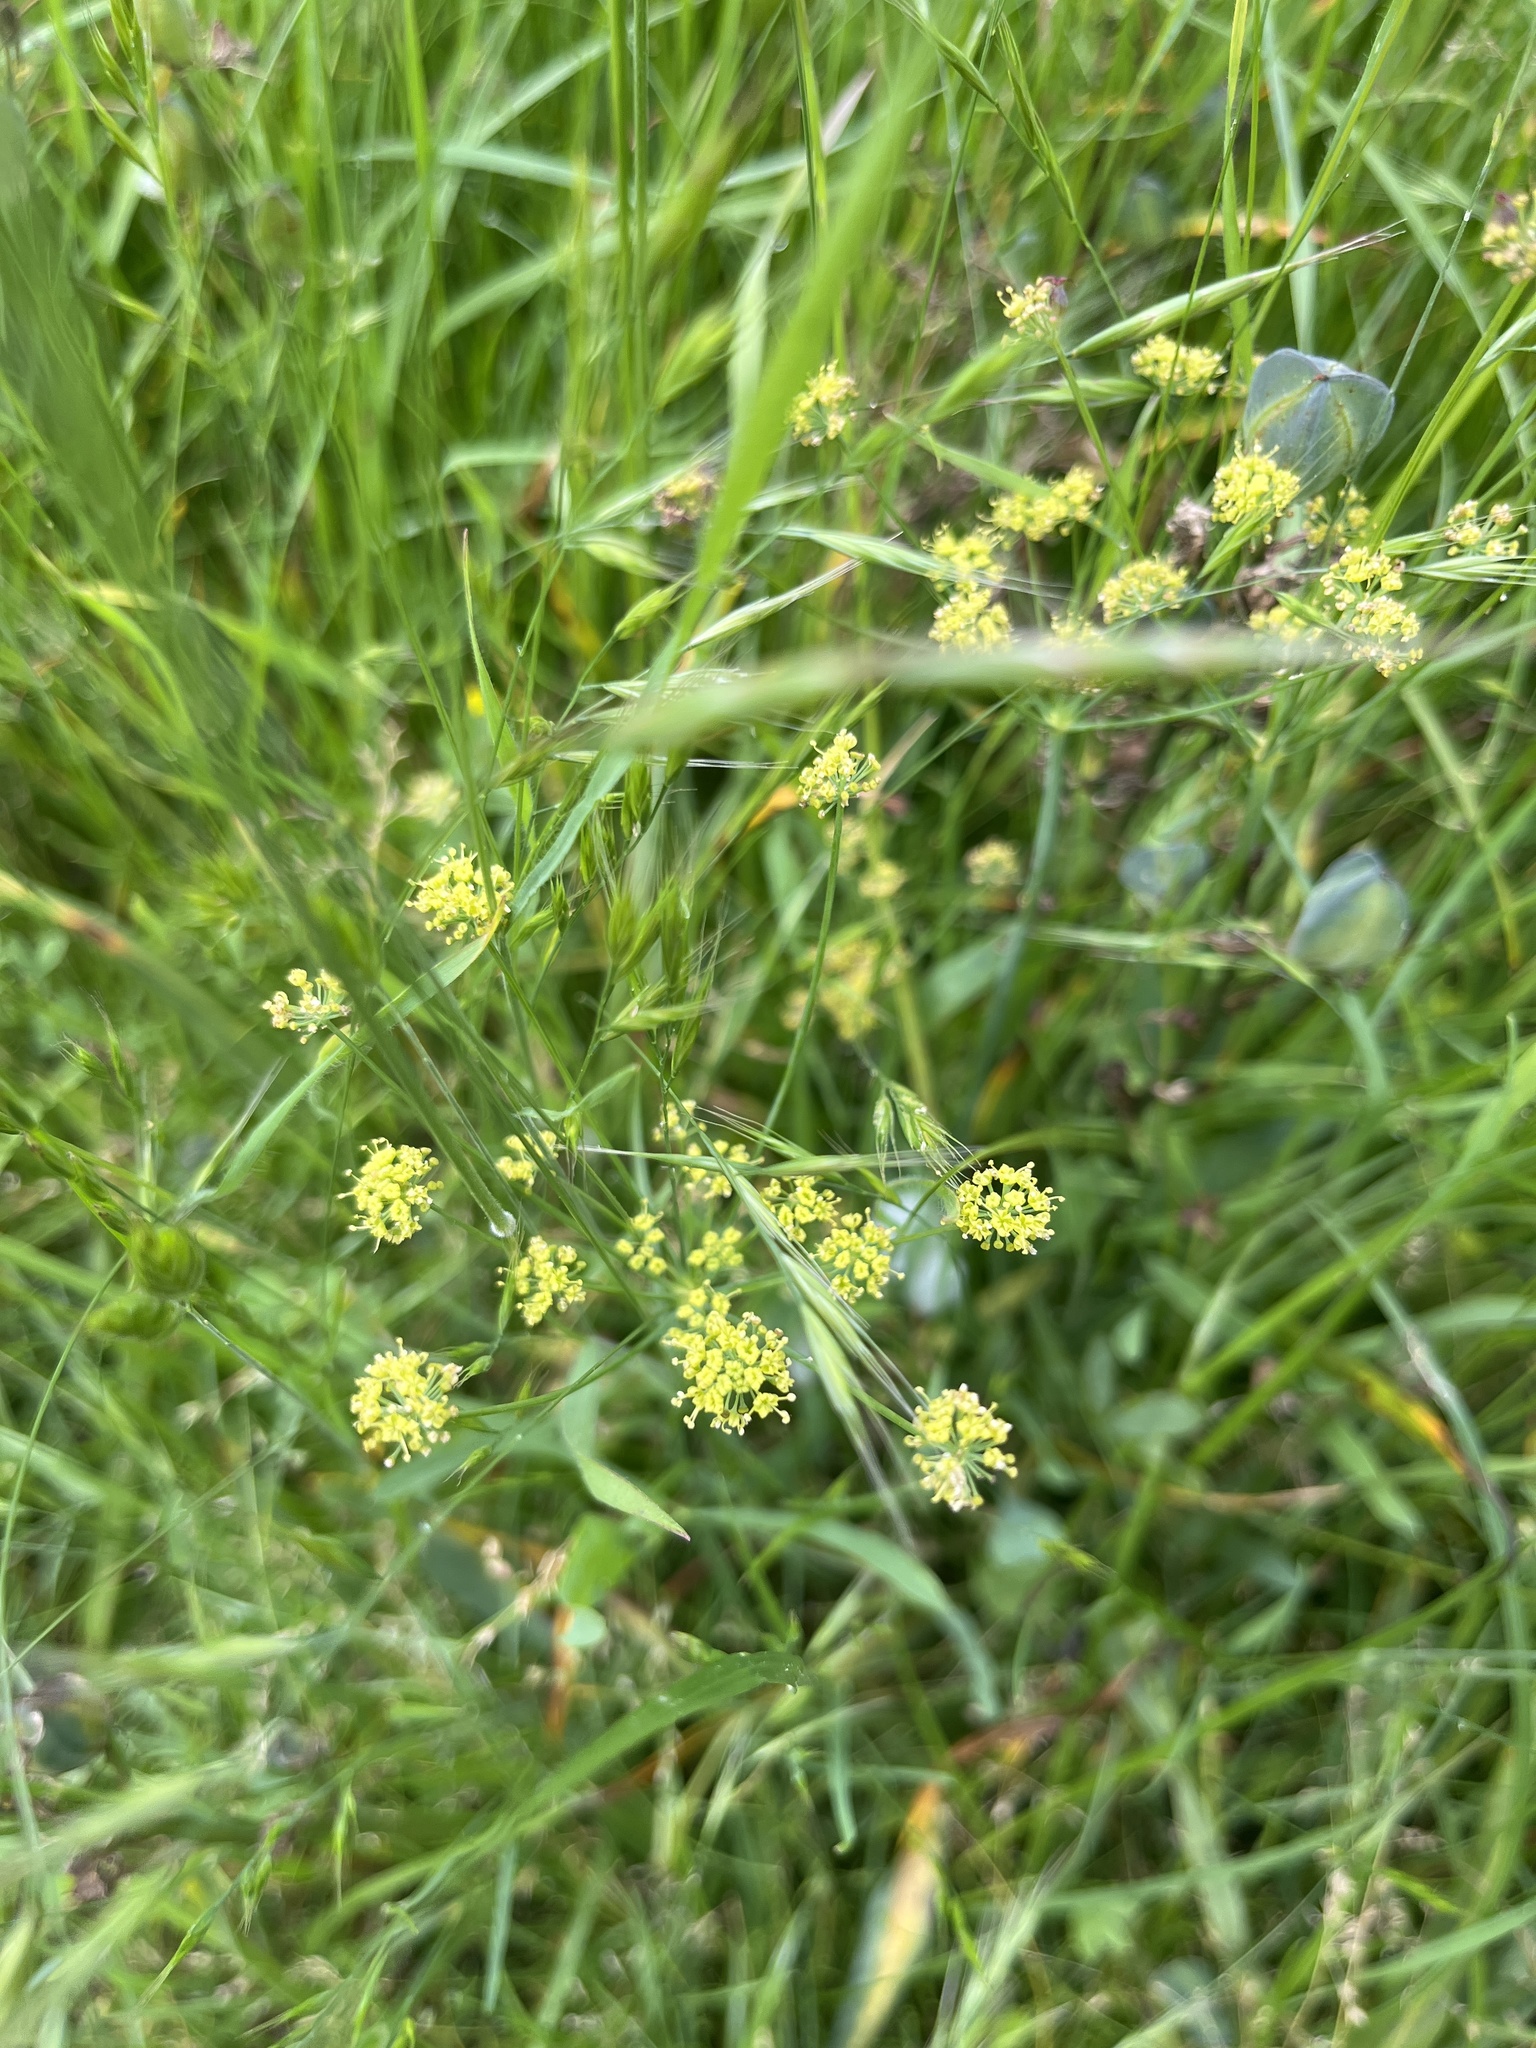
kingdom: Plantae
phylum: Tracheophyta
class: Magnoliopsida
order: Apiales
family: Apiaceae
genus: Lomatium
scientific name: Lomatium nudicaule
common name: Pestle lomatium
